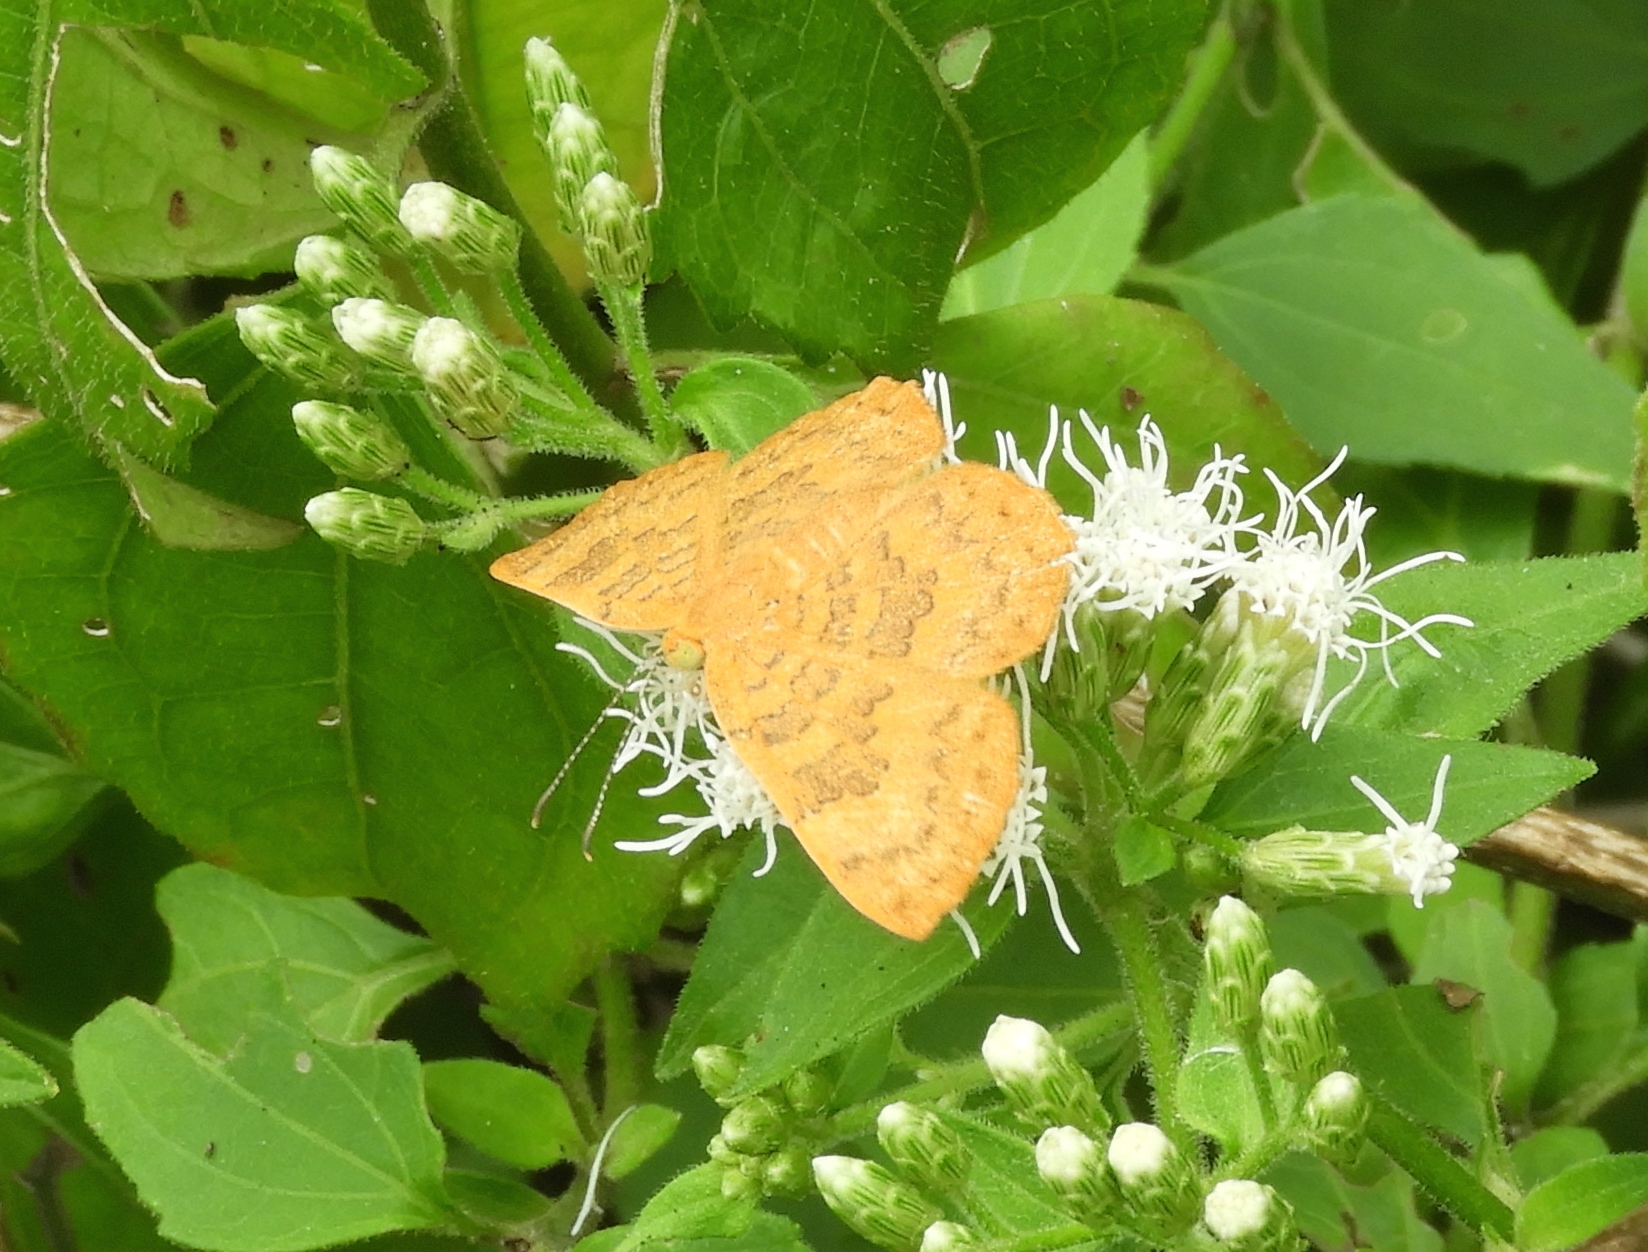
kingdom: Animalia
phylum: Arthropoda
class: Insecta
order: Lepidoptera
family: Lycaenidae
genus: Emesis
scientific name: Emesis
